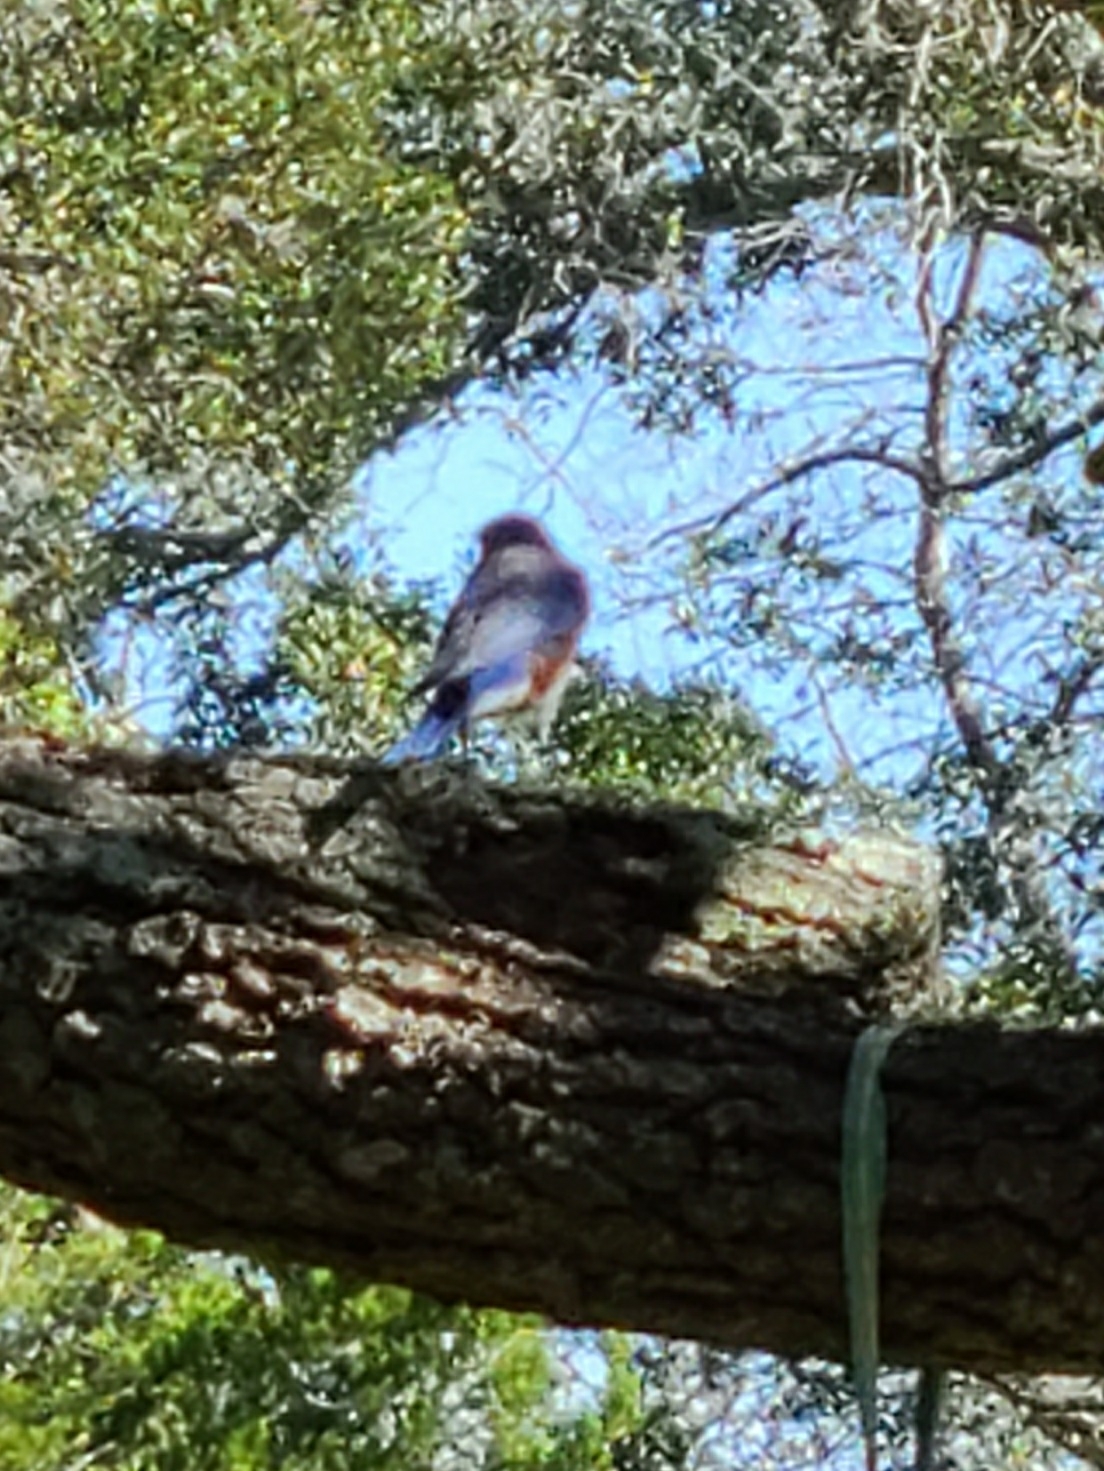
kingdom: Animalia
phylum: Chordata
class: Aves
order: Passeriformes
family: Turdidae
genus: Sialia
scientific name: Sialia sialis
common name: Eastern bluebird
